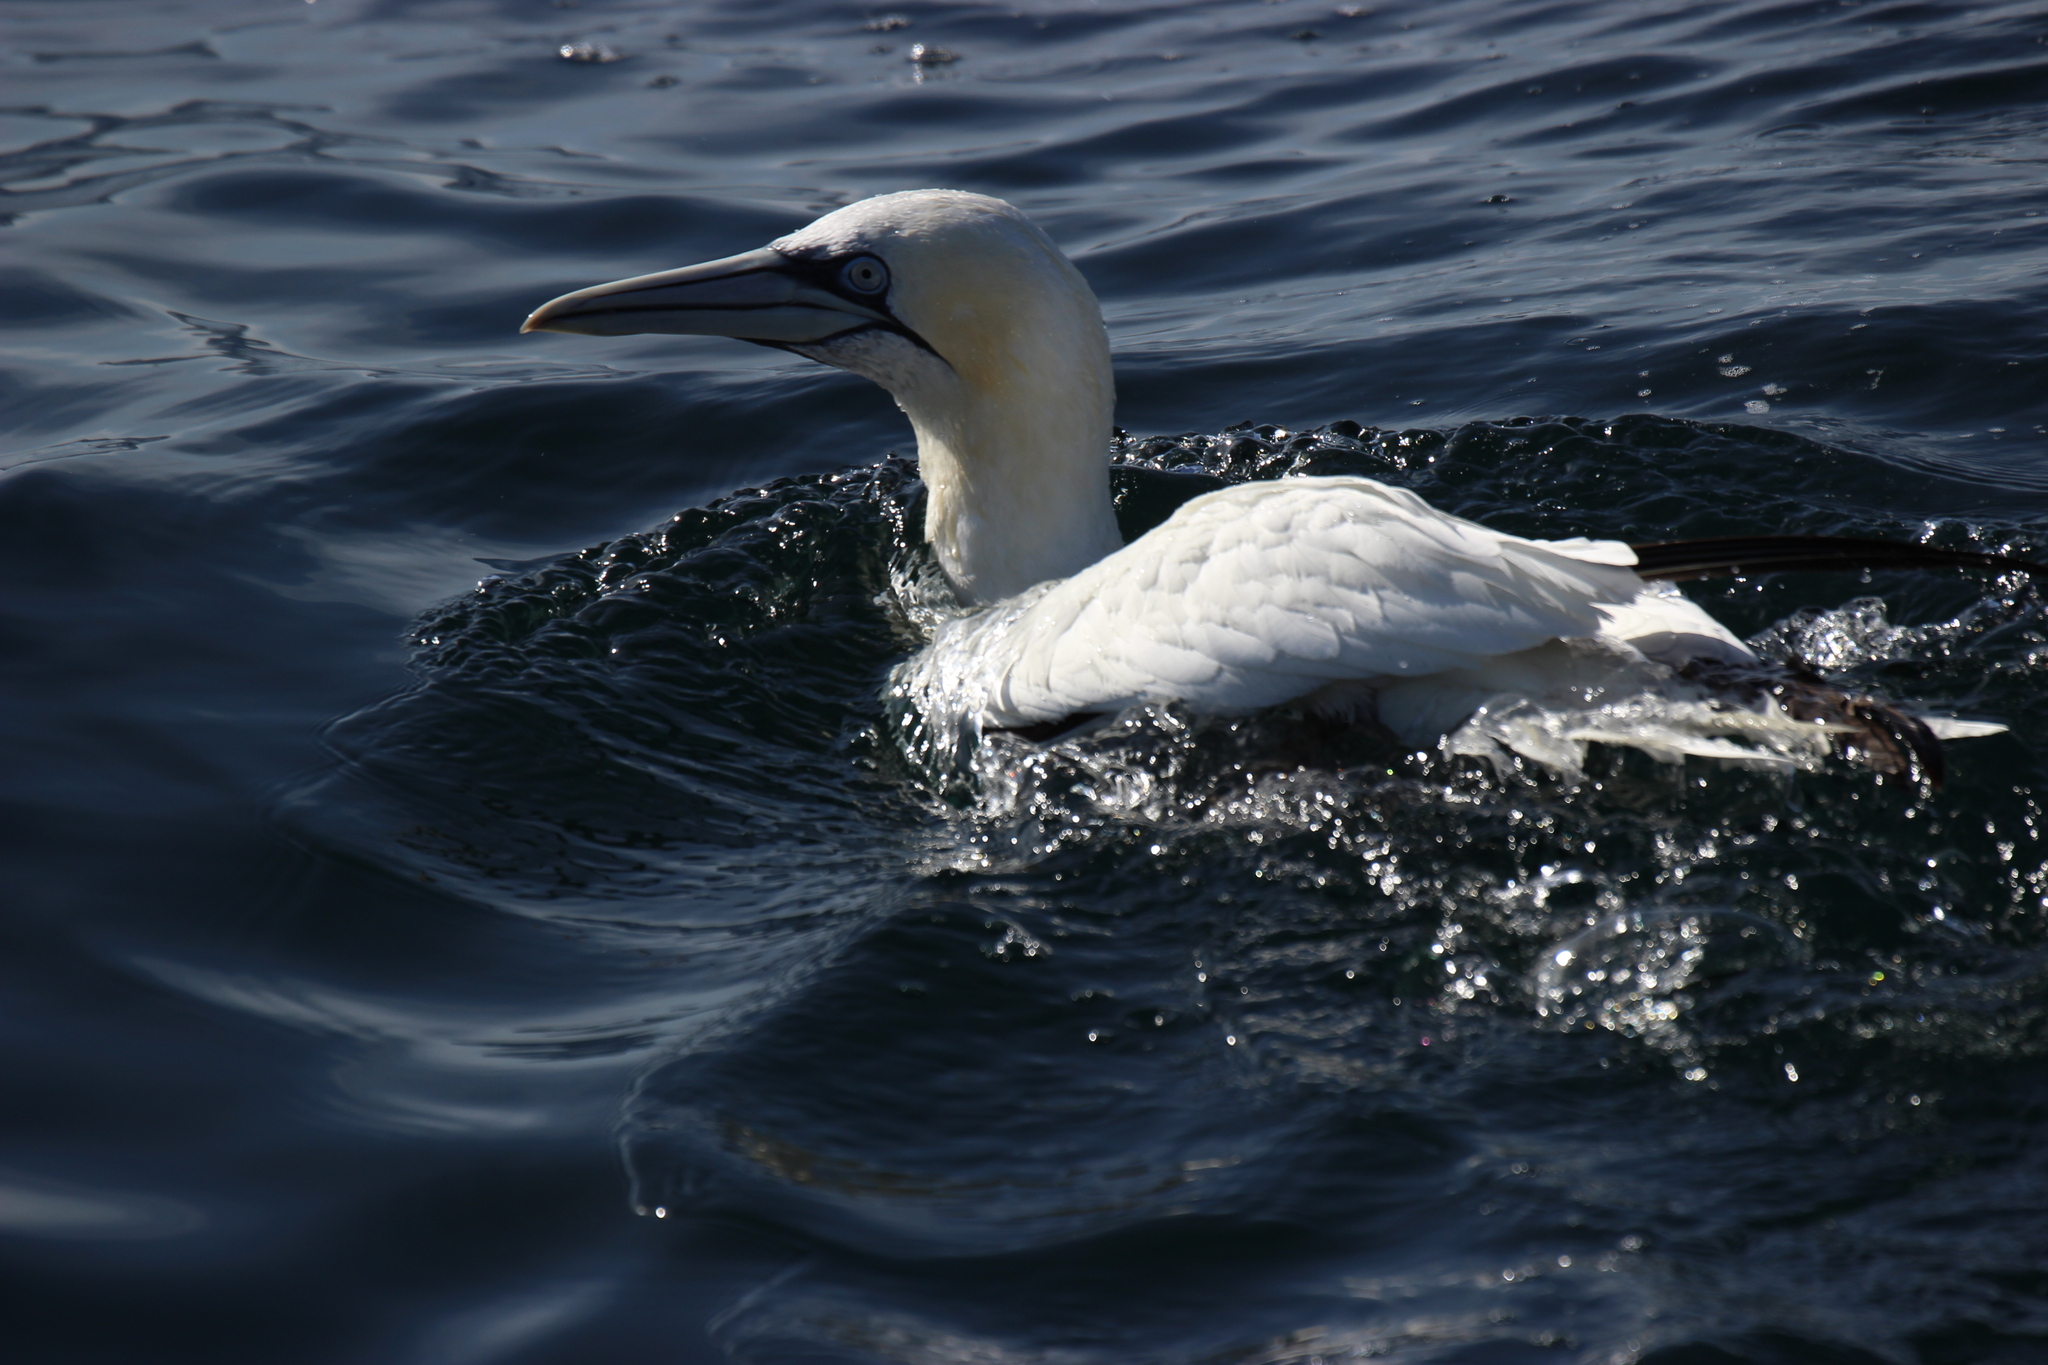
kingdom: Animalia
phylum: Chordata
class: Aves
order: Suliformes
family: Sulidae
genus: Morus
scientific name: Morus bassanus
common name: Northern gannet
